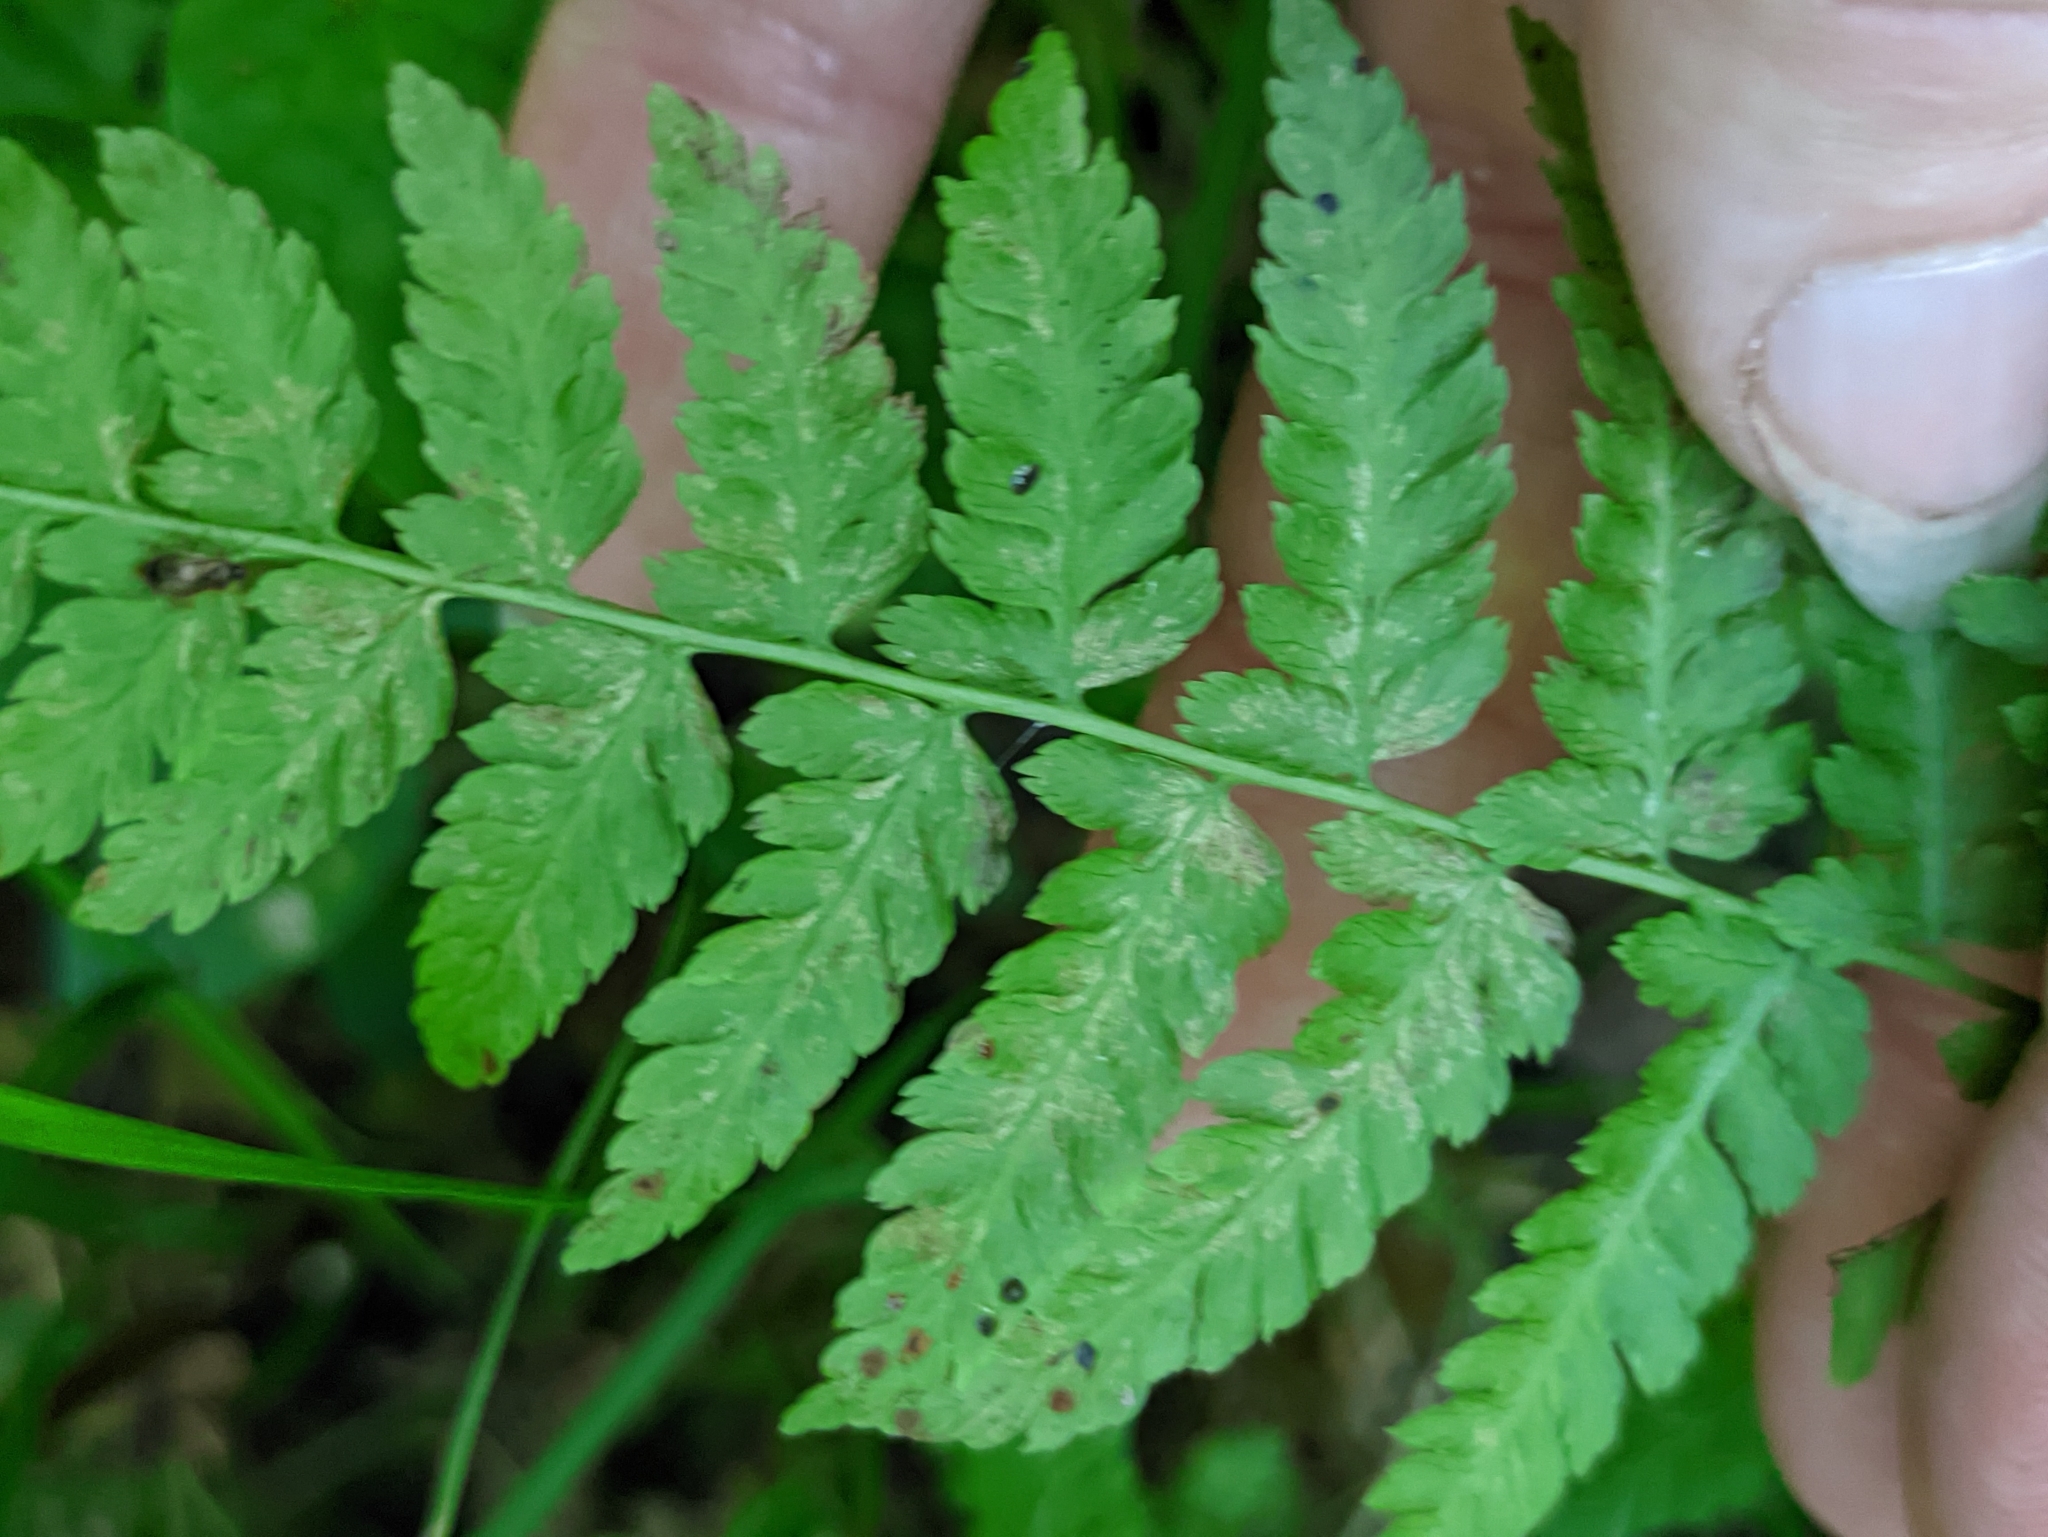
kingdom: Plantae
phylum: Tracheophyta
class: Polypodiopsida
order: Polypodiales
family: Athyriaceae
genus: Athyrium
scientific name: Athyrium filix-femina
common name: Lady fern
